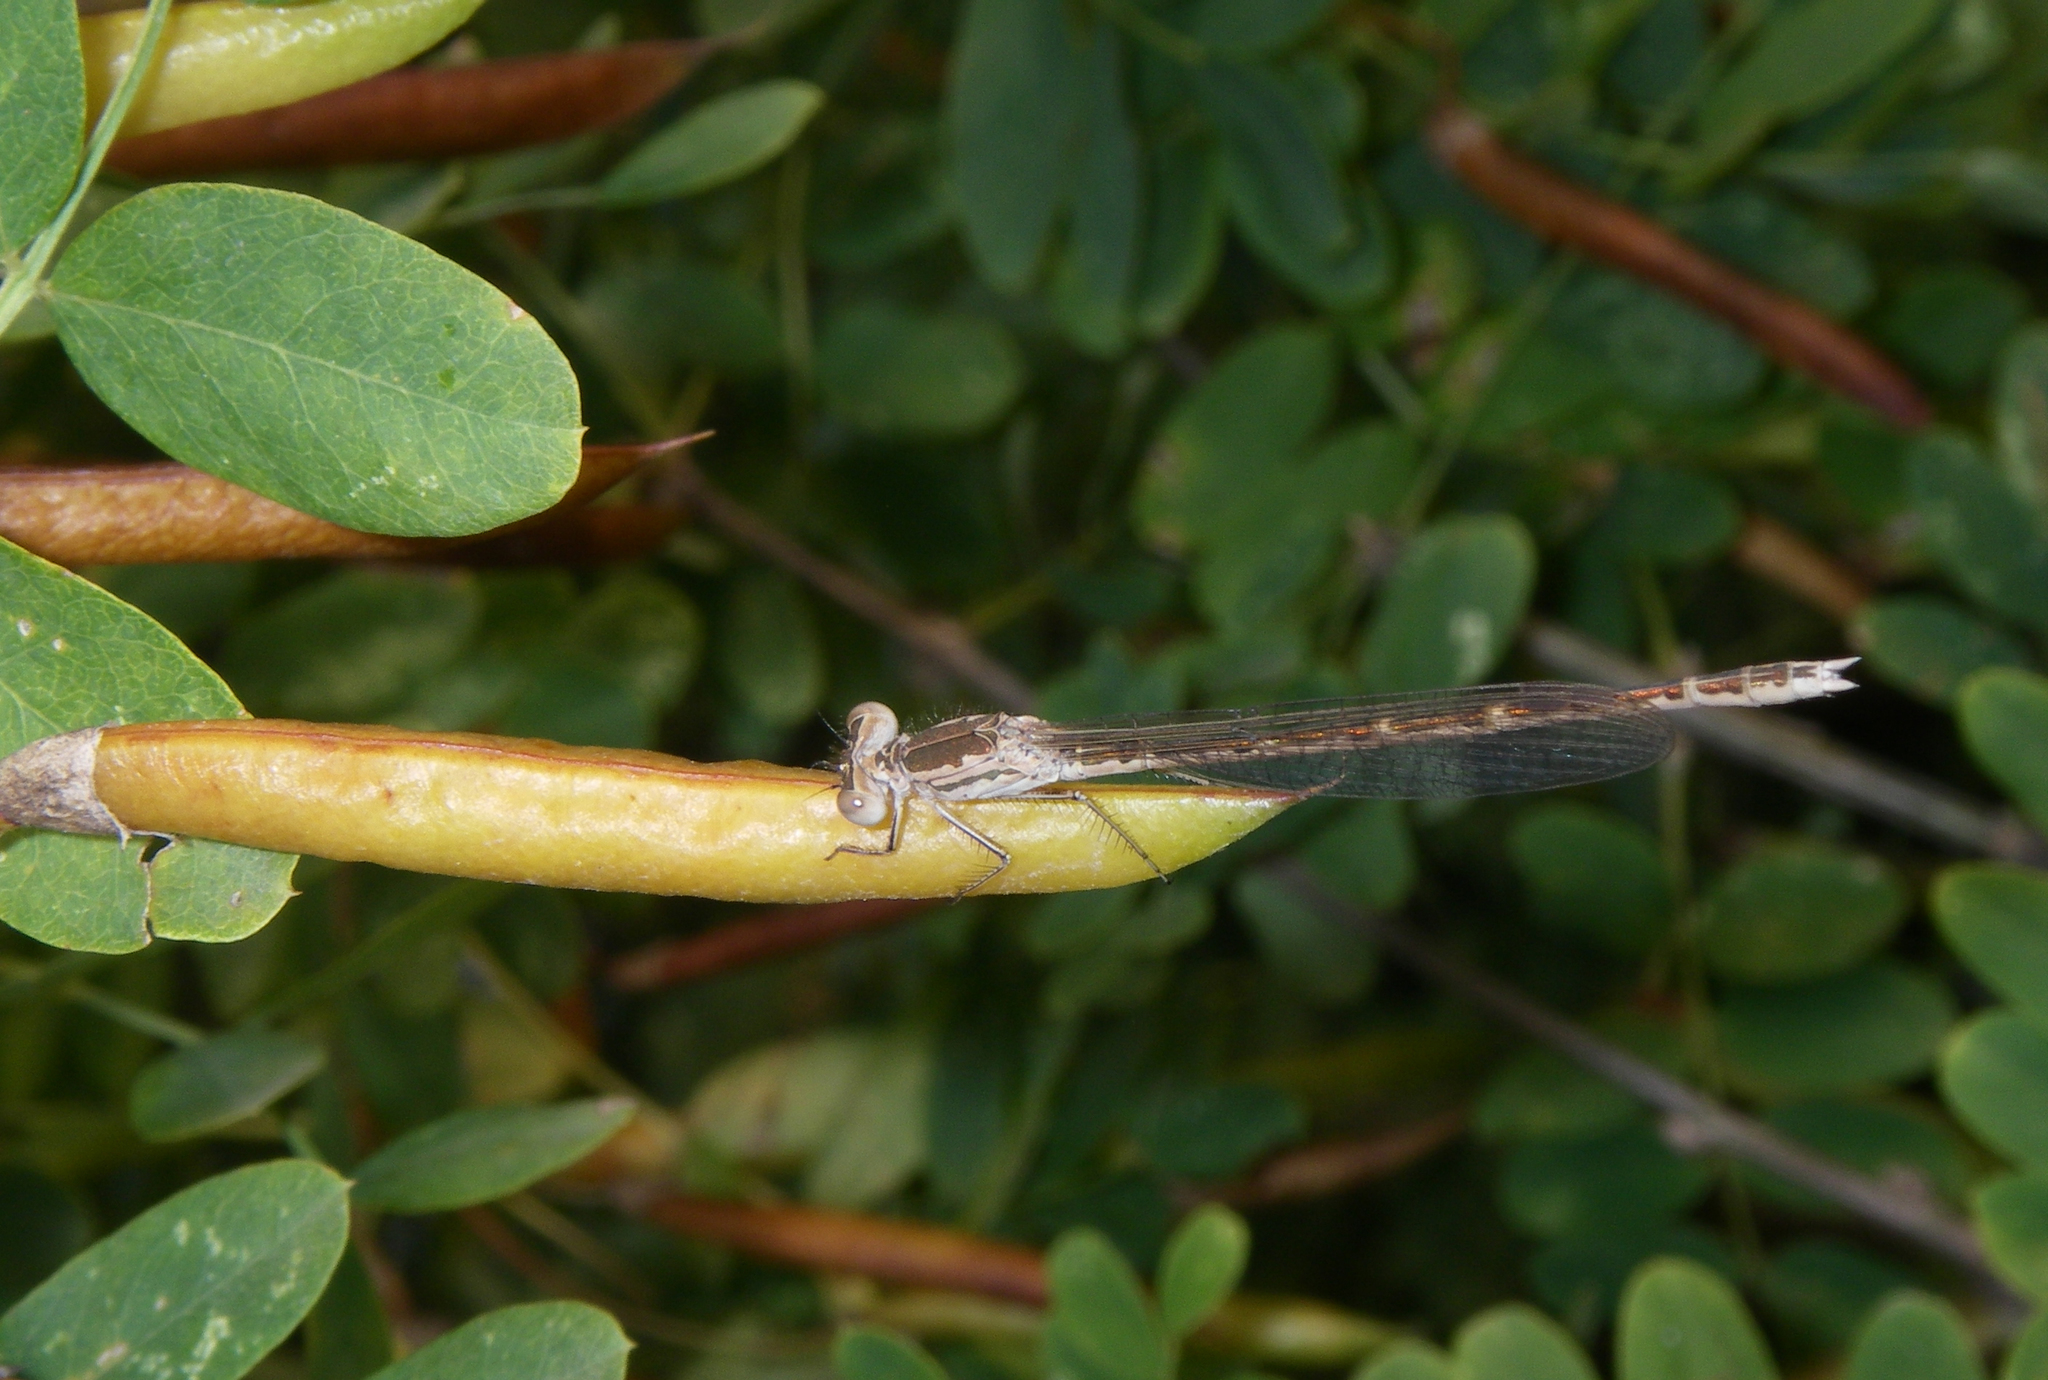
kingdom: Plantae
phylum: Tracheophyta
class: Magnoliopsida
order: Fabales
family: Fabaceae
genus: Caragana
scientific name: Caragana arborescens
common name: Siberian peashrub
